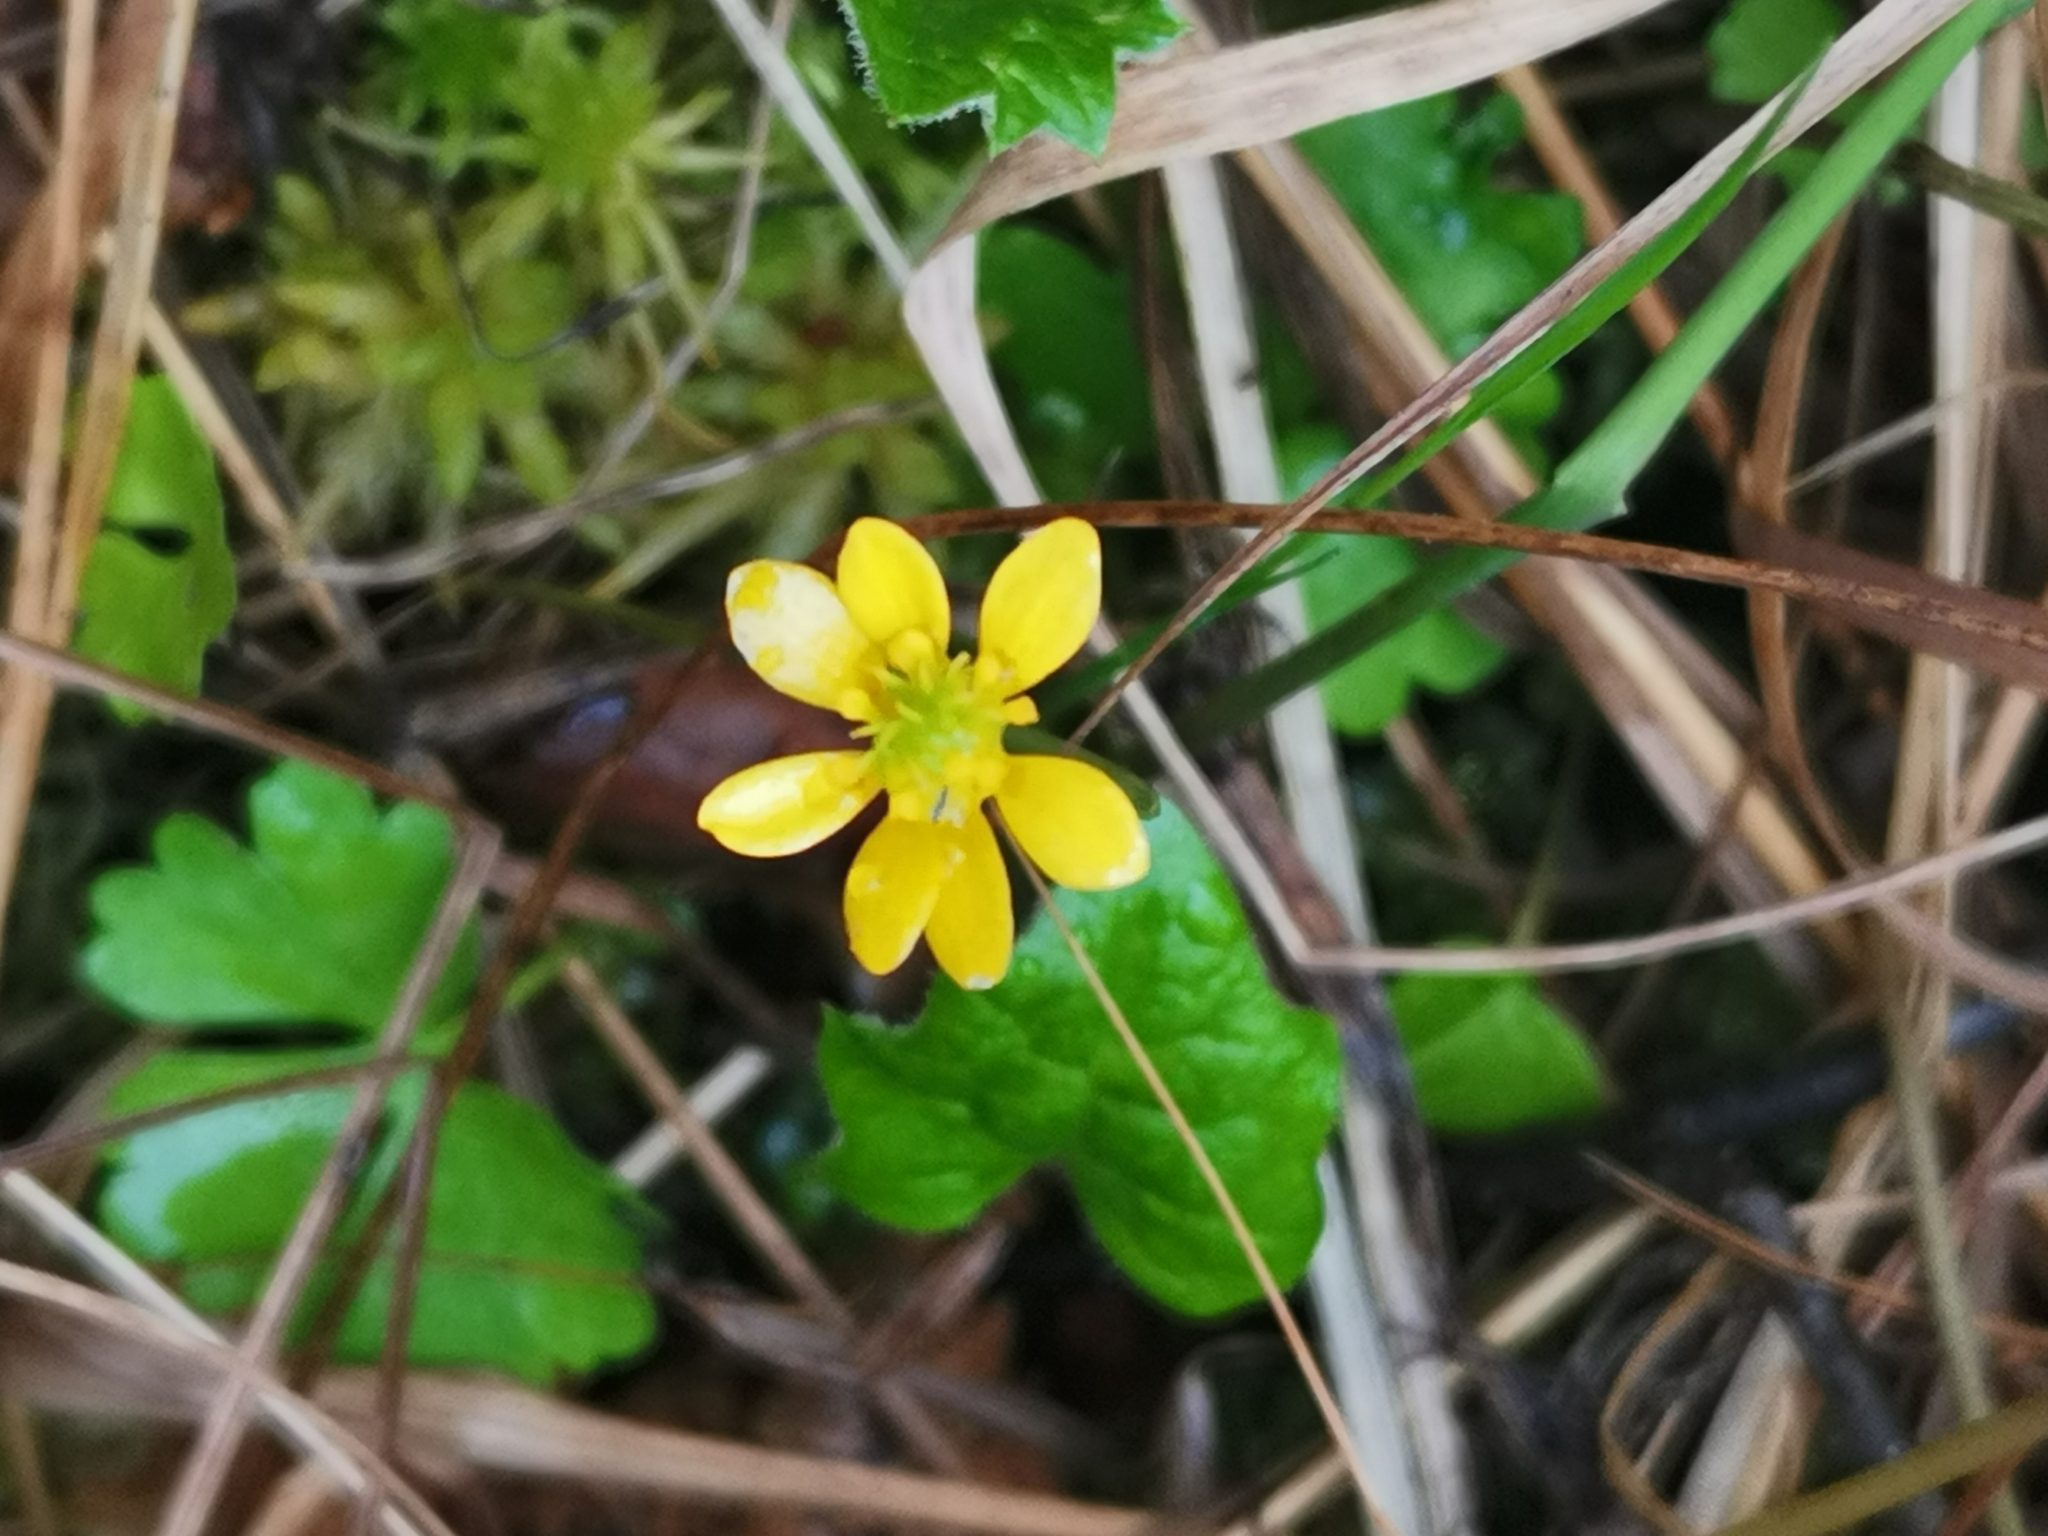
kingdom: Plantae
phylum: Tracheophyta
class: Magnoliopsida
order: Ranunculales
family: Ranunculaceae
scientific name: Ranunculaceae
